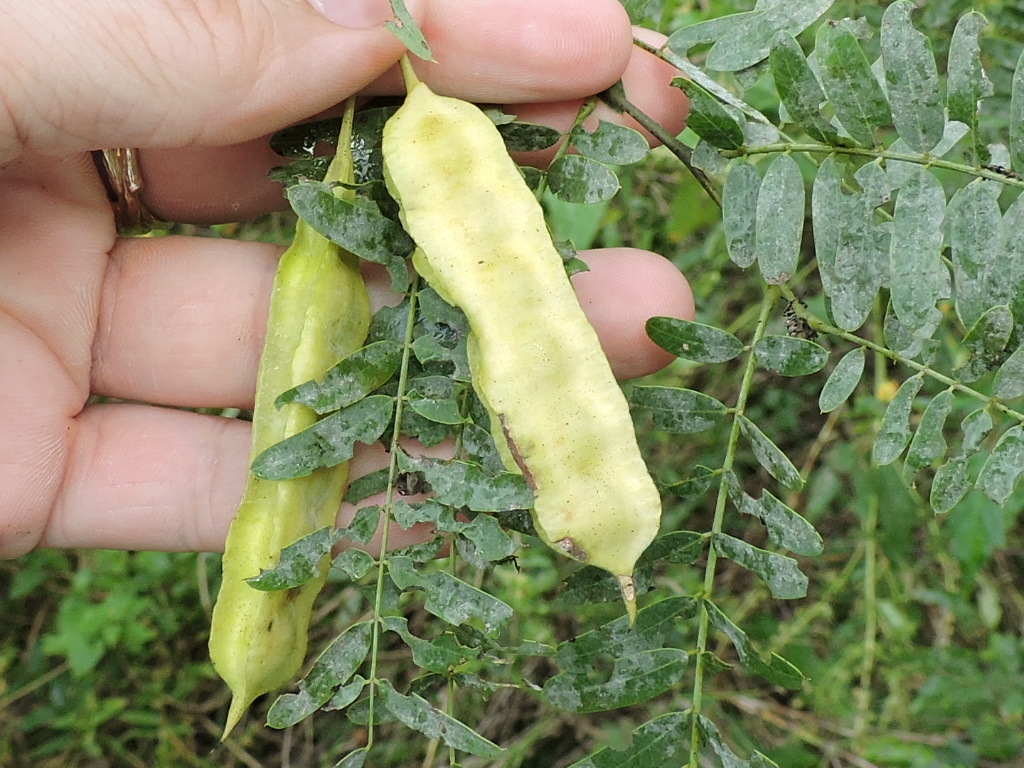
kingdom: Plantae
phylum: Tracheophyta
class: Magnoliopsida
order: Fabales
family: Fabaceae
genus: Sesbania
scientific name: Sesbania drummondii
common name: Poison-bean
